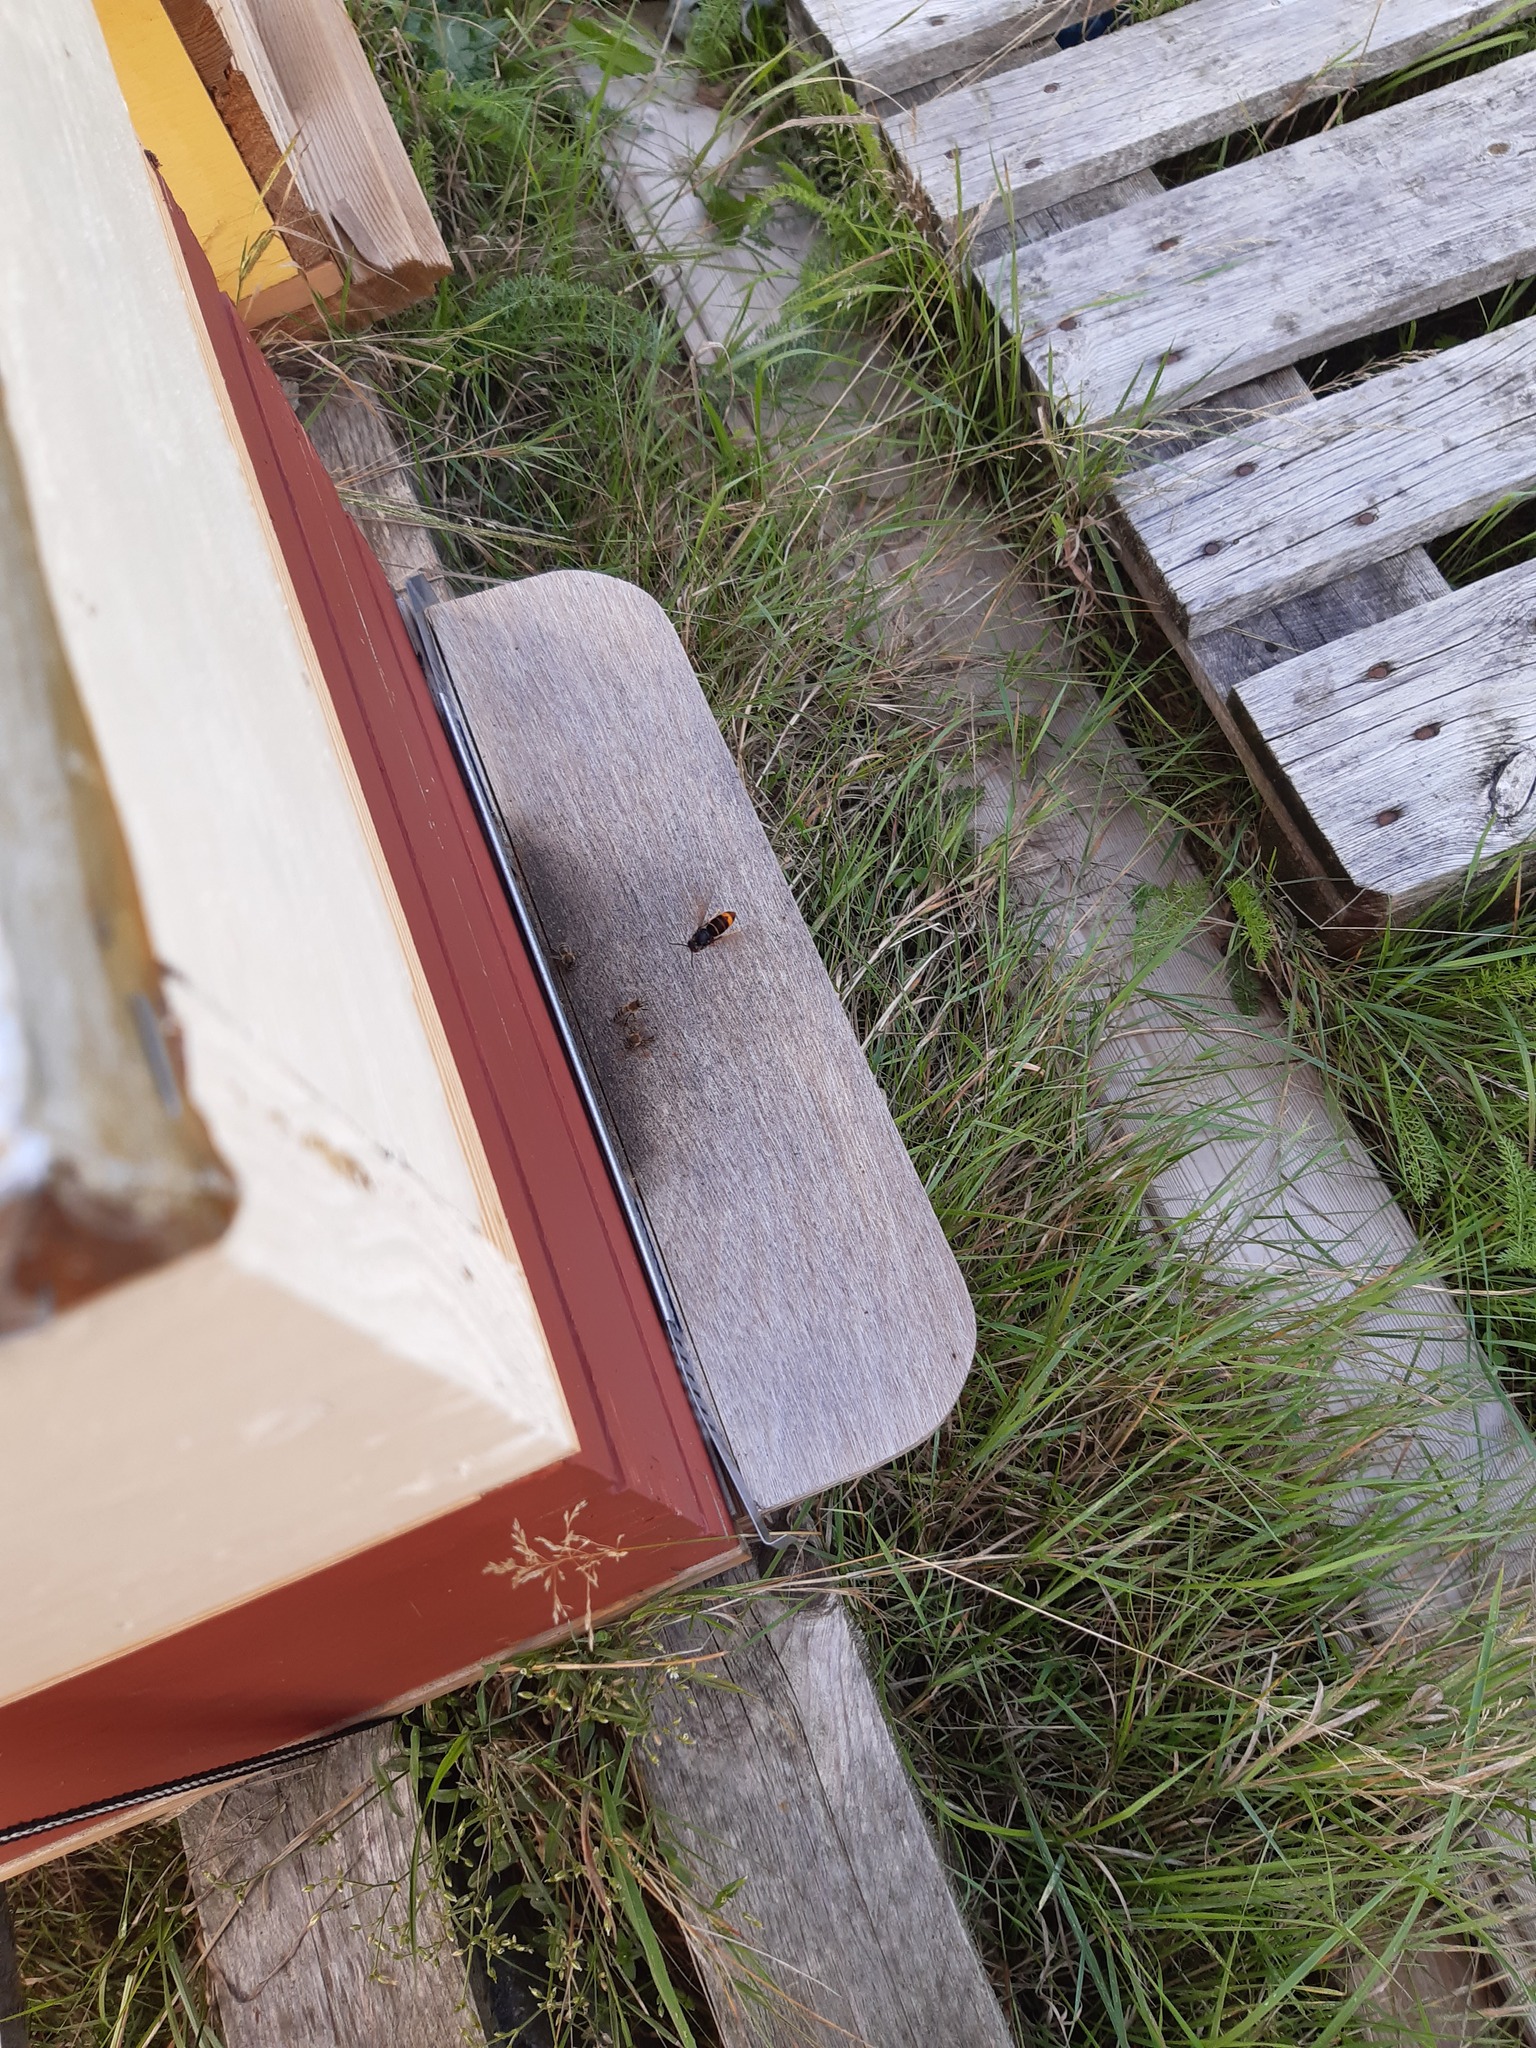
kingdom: Animalia
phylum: Arthropoda
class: Insecta
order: Hymenoptera
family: Vespidae
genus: Vespa
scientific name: Vespa velutina
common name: Asian hornet
